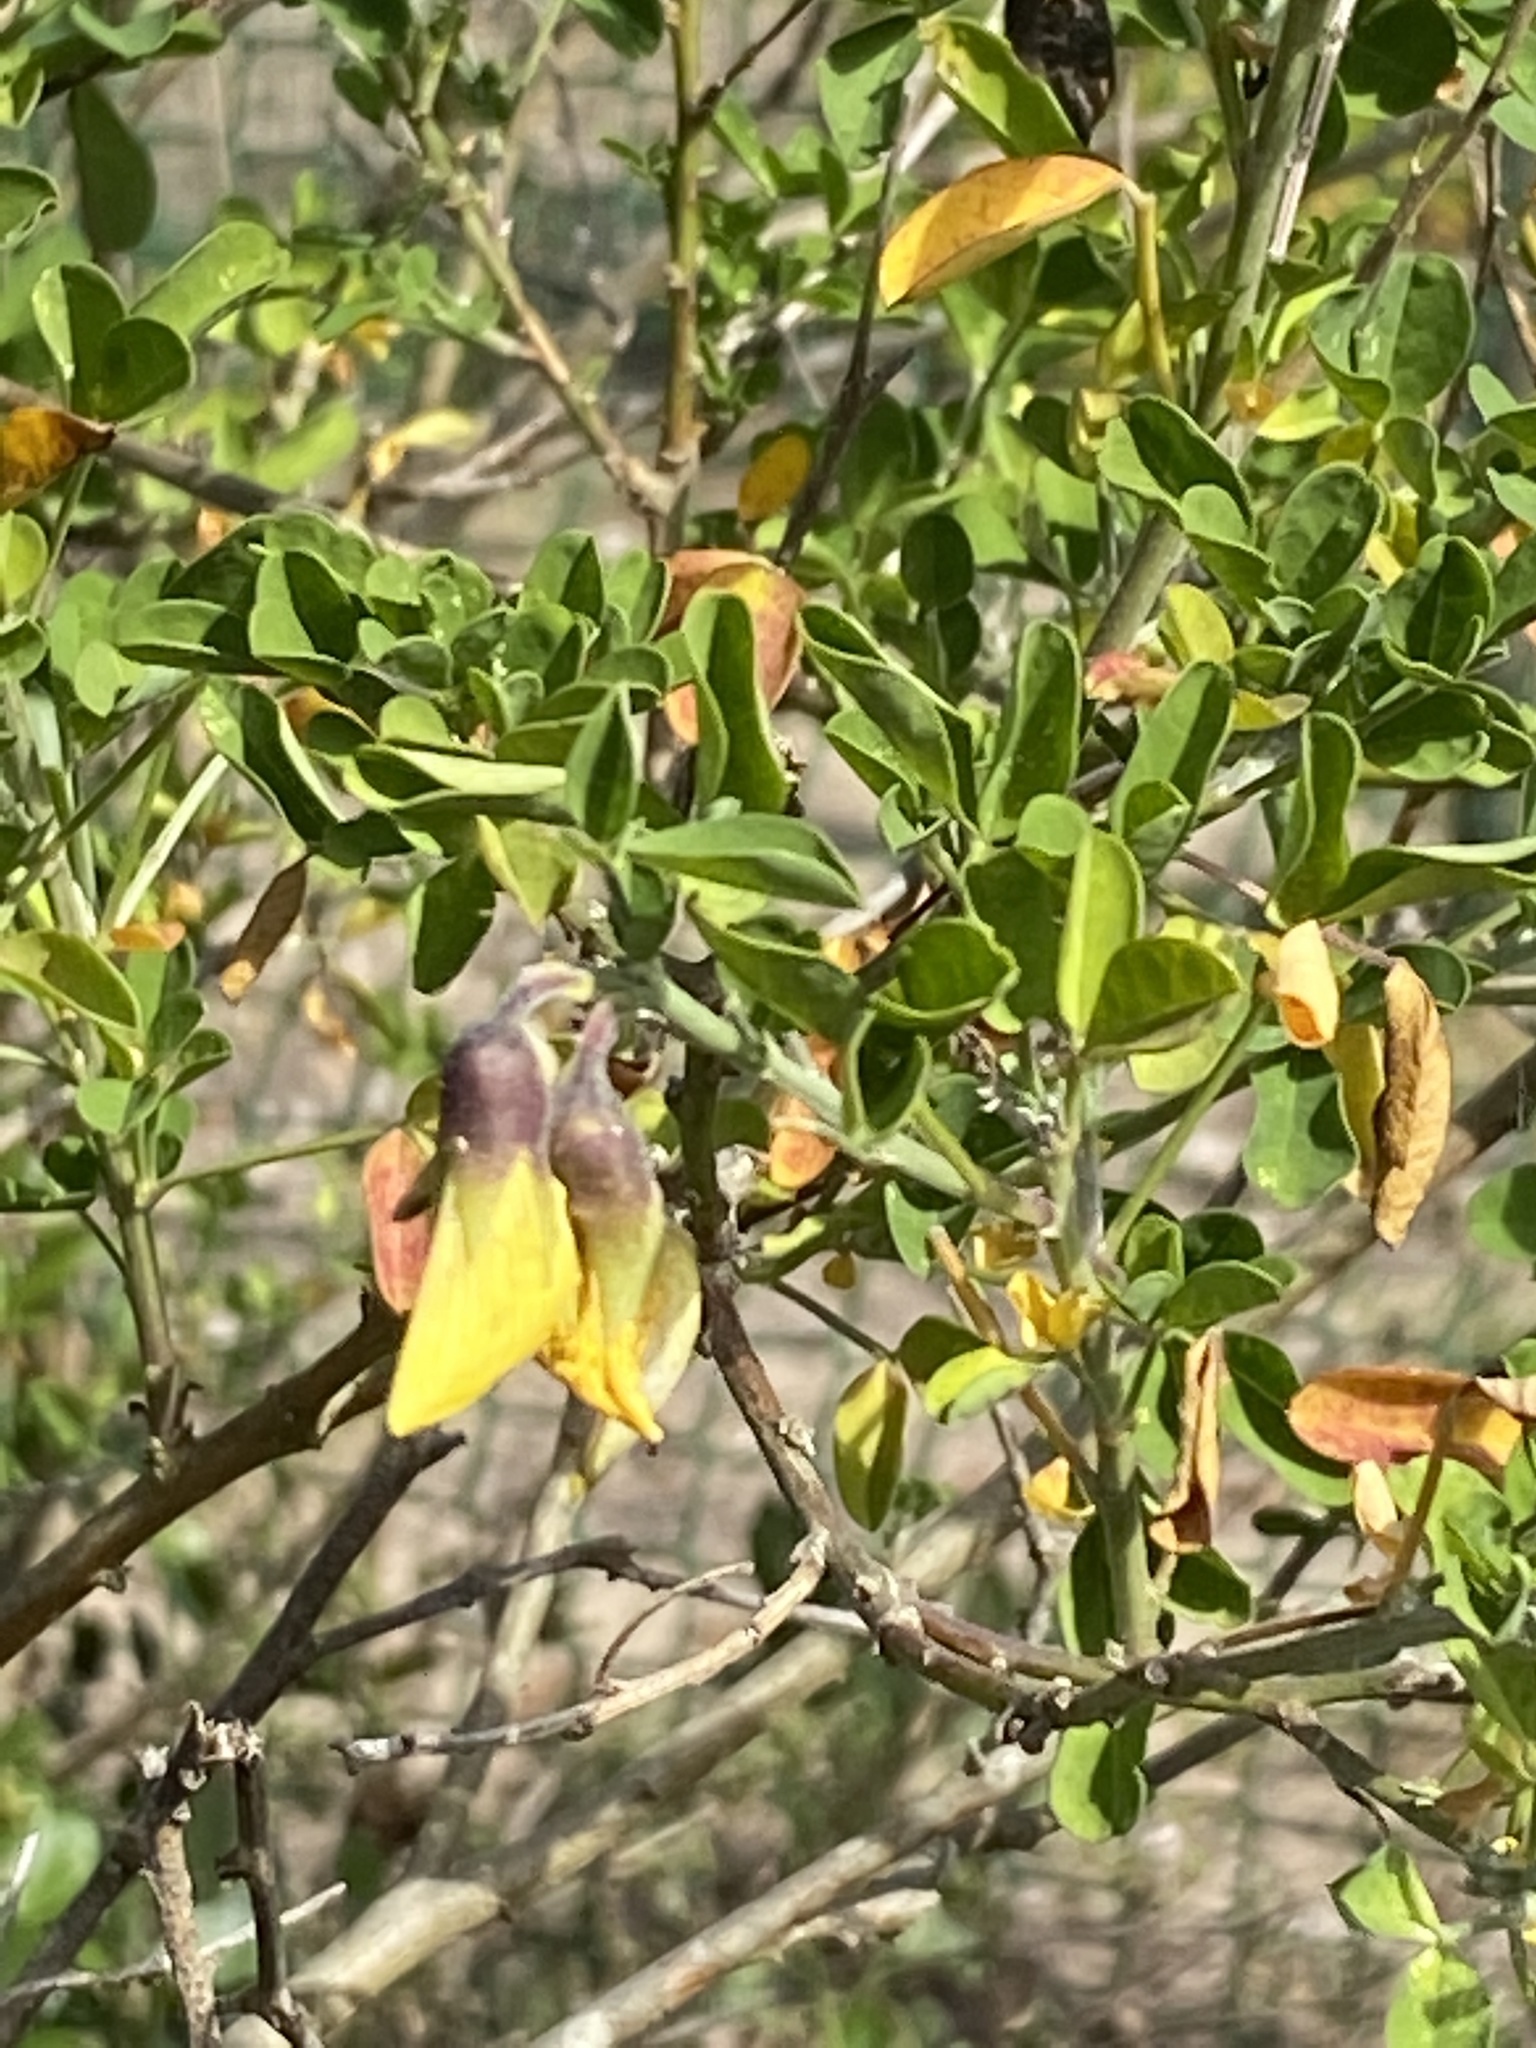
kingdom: Plantae
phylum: Tracheophyta
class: Magnoliopsida
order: Fabales
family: Fabaceae
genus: Crotalaria
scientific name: Crotalaria capensis
